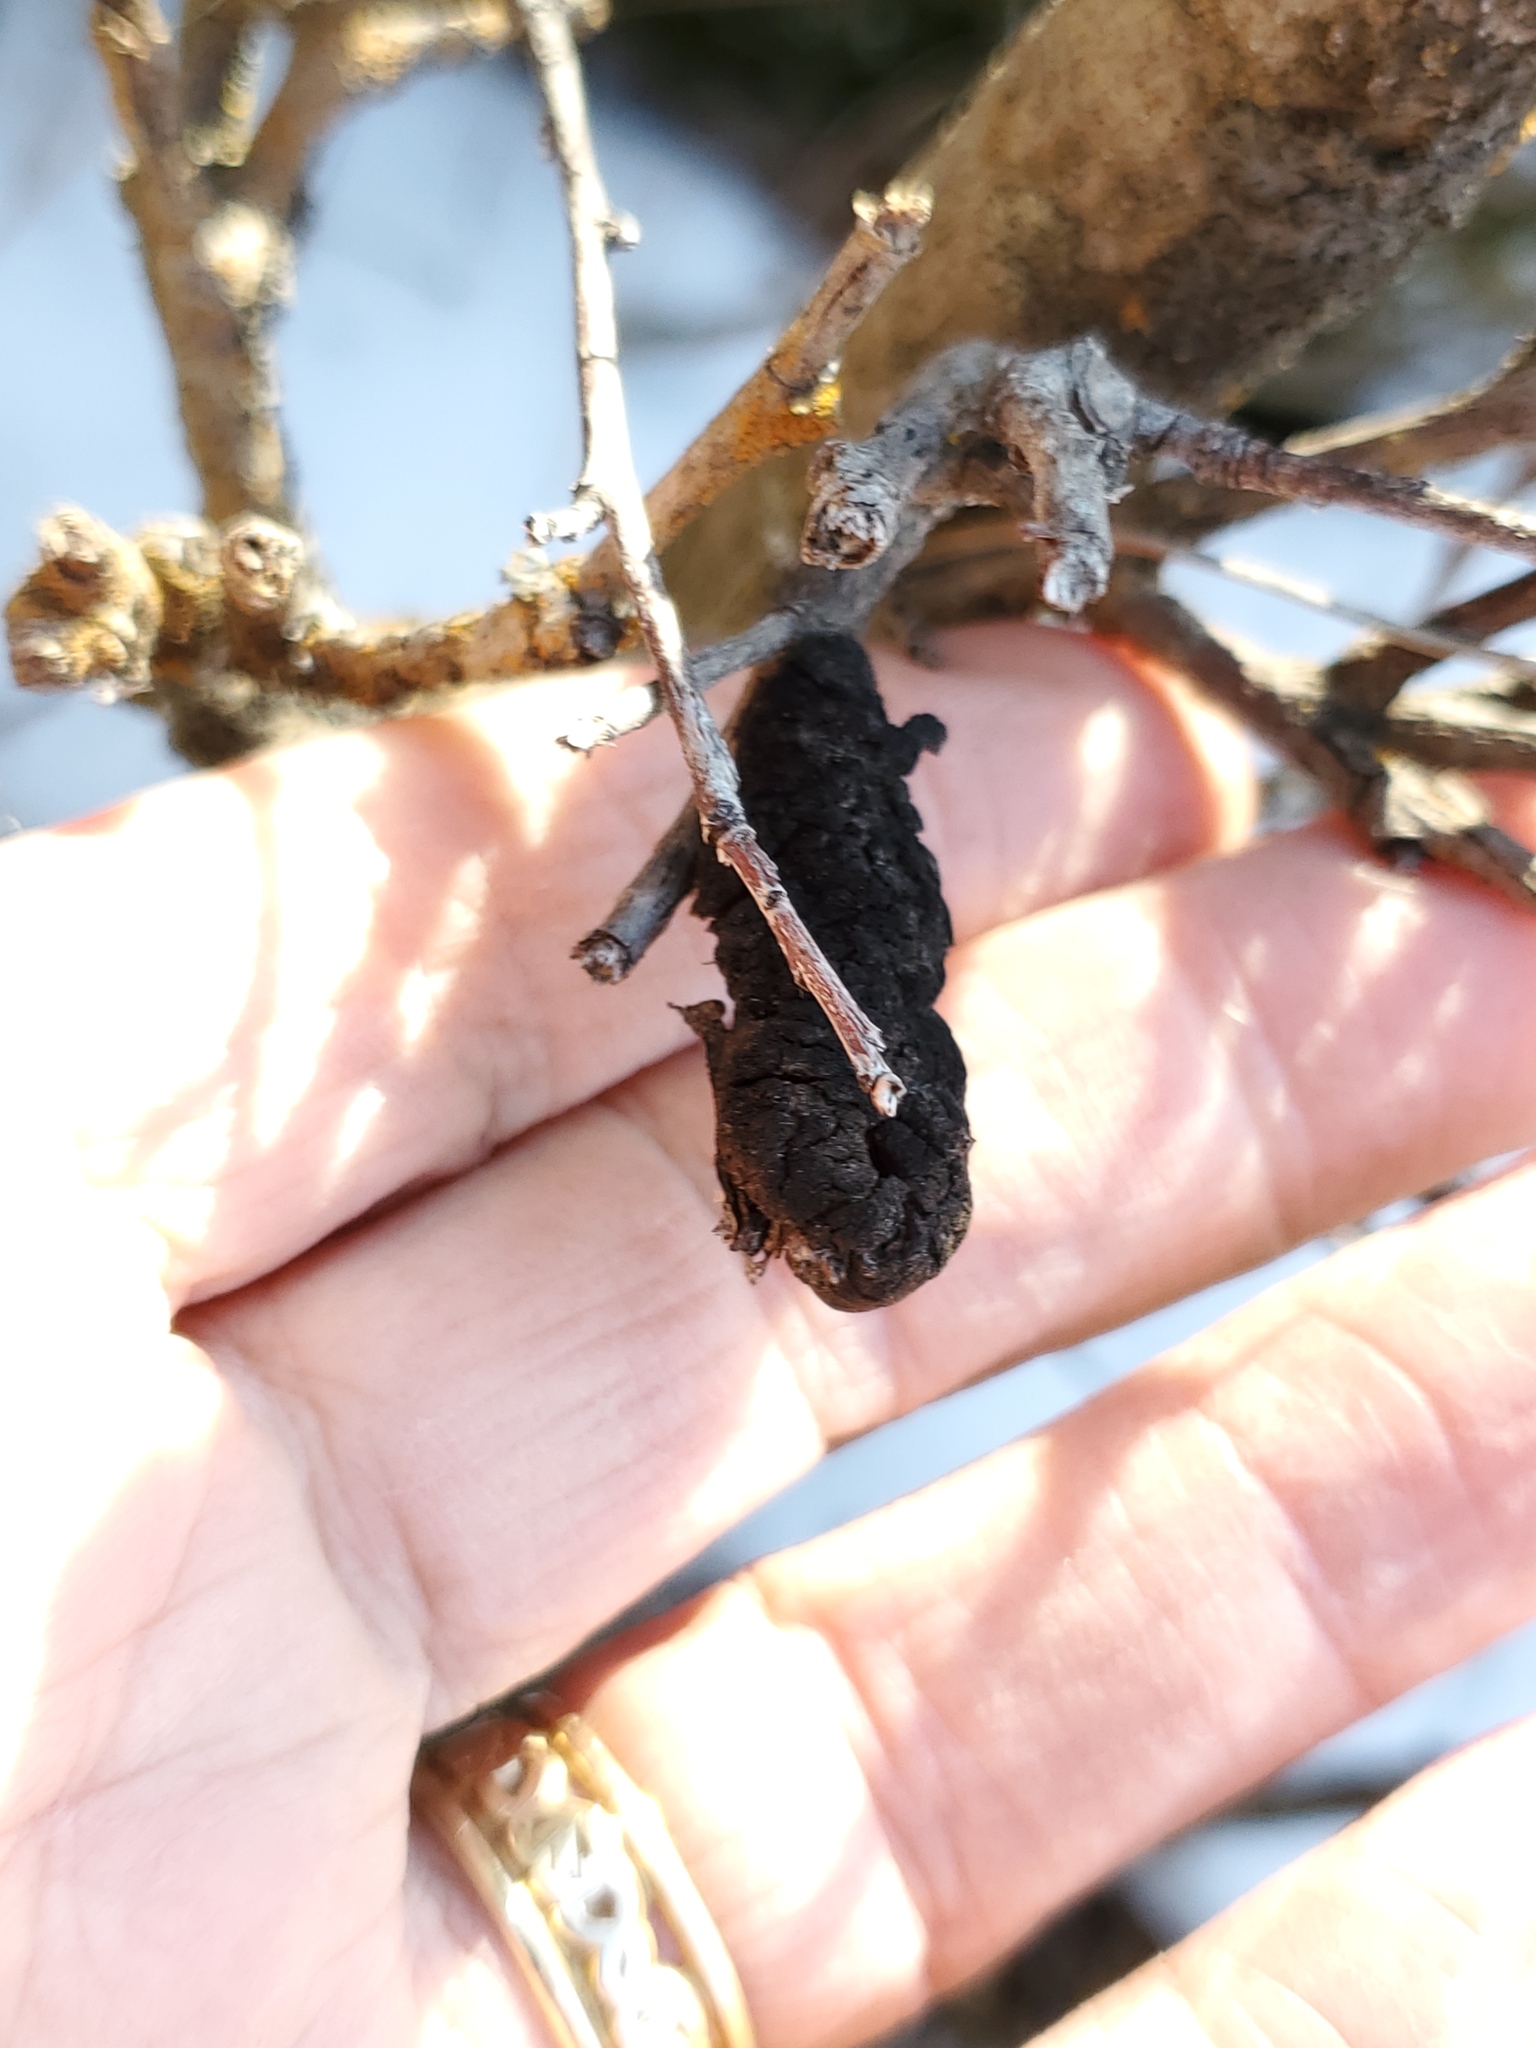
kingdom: Fungi
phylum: Ascomycota
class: Dothideomycetes
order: Venturiales
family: Venturiaceae
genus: Apiosporina
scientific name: Apiosporina morbosa
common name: Black knot
